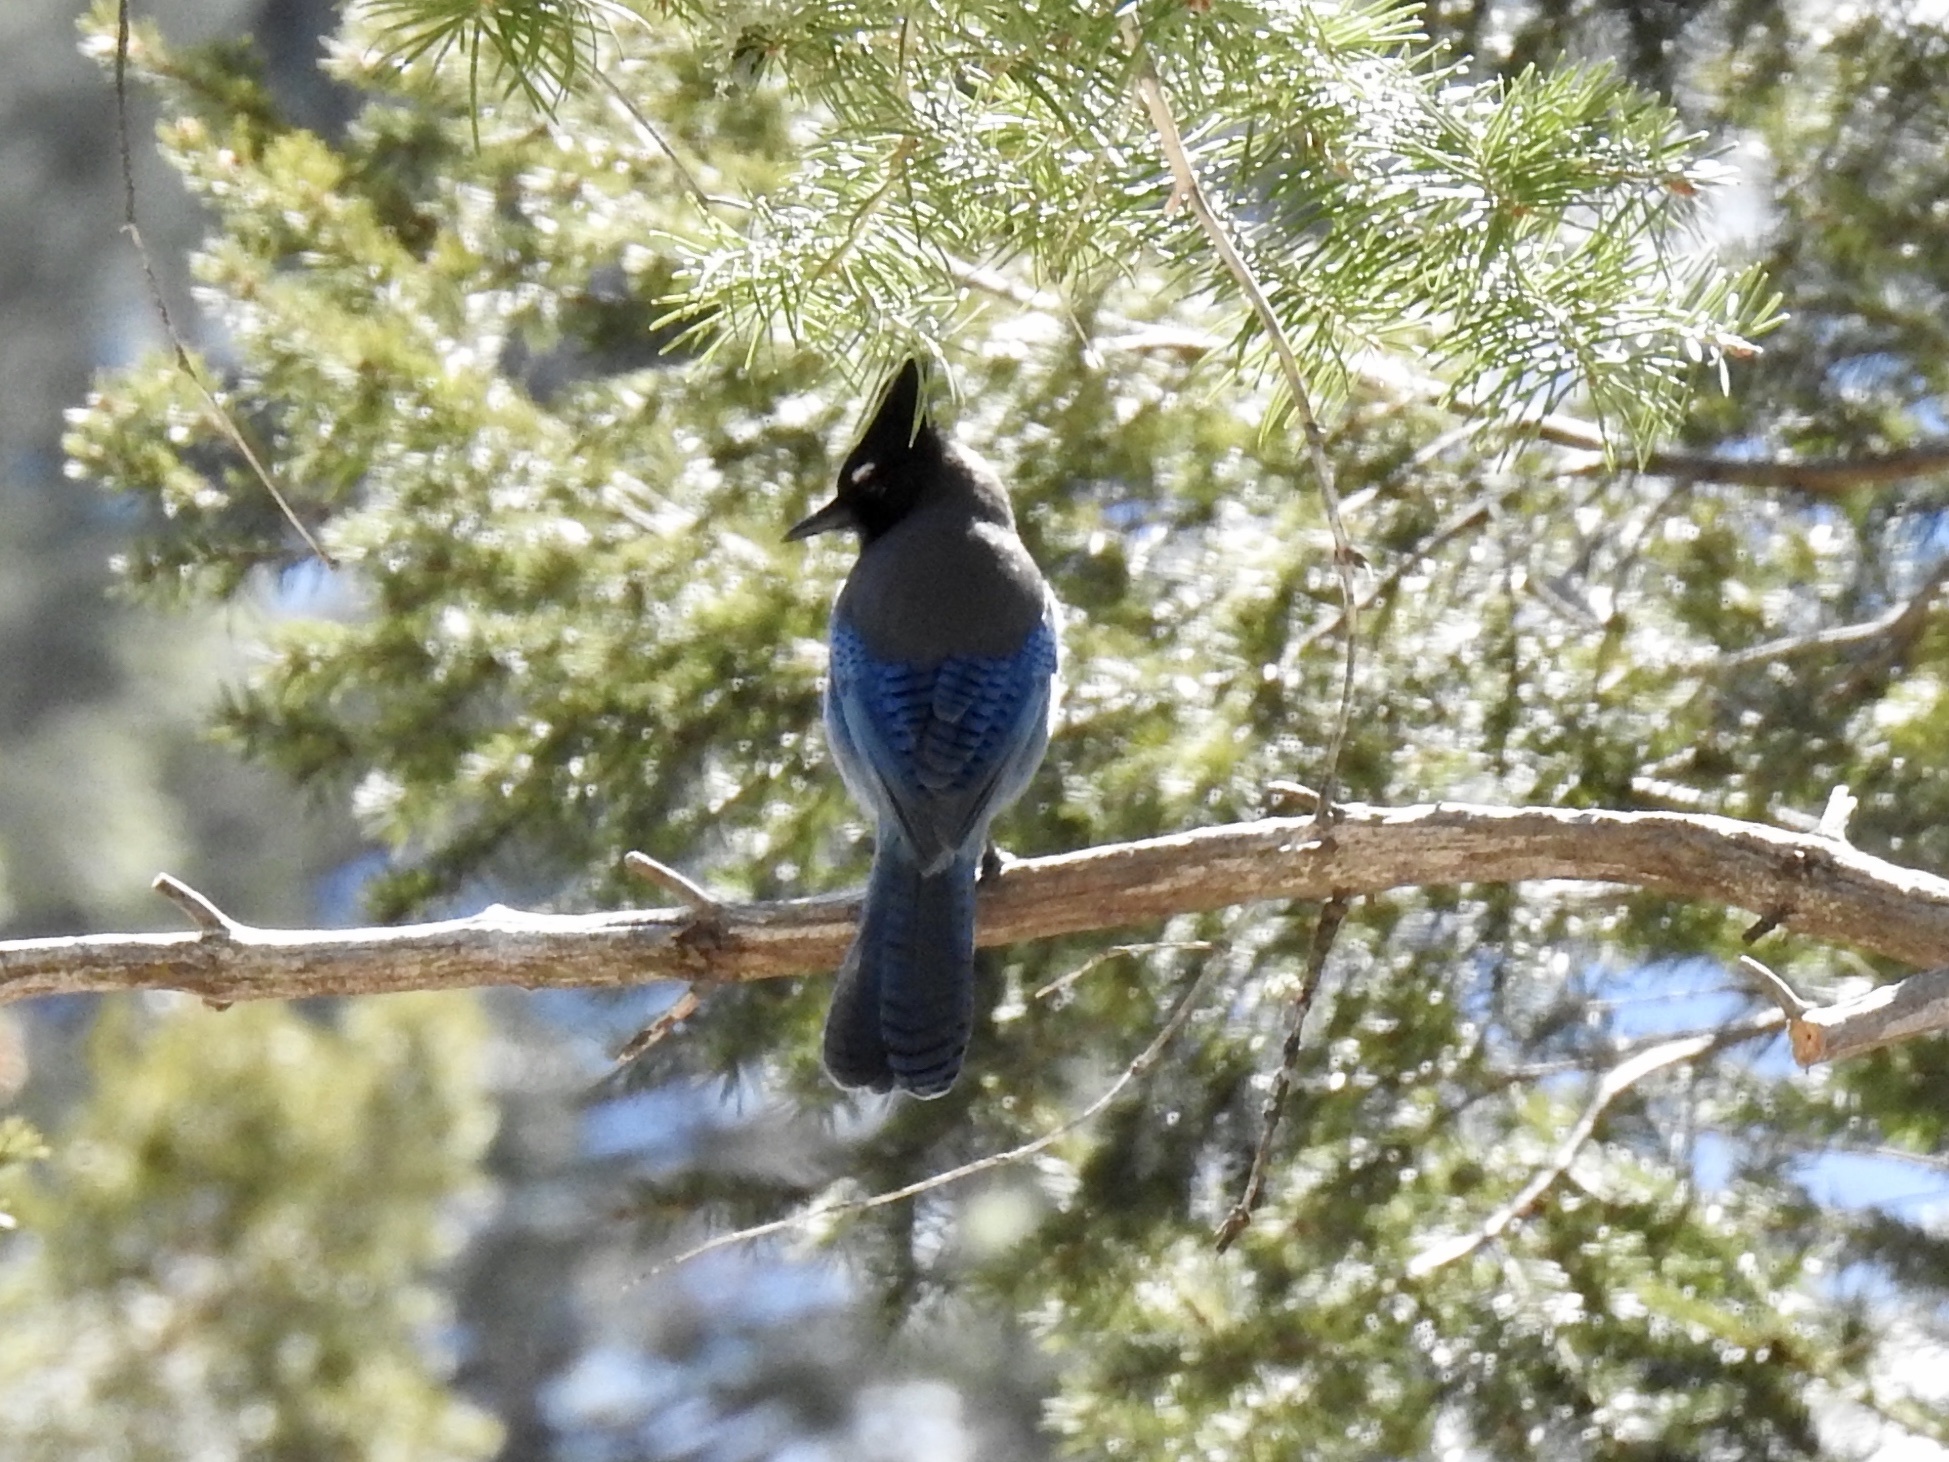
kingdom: Animalia
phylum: Chordata
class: Aves
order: Passeriformes
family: Corvidae
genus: Cyanocitta
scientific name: Cyanocitta stelleri
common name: Steller's jay
